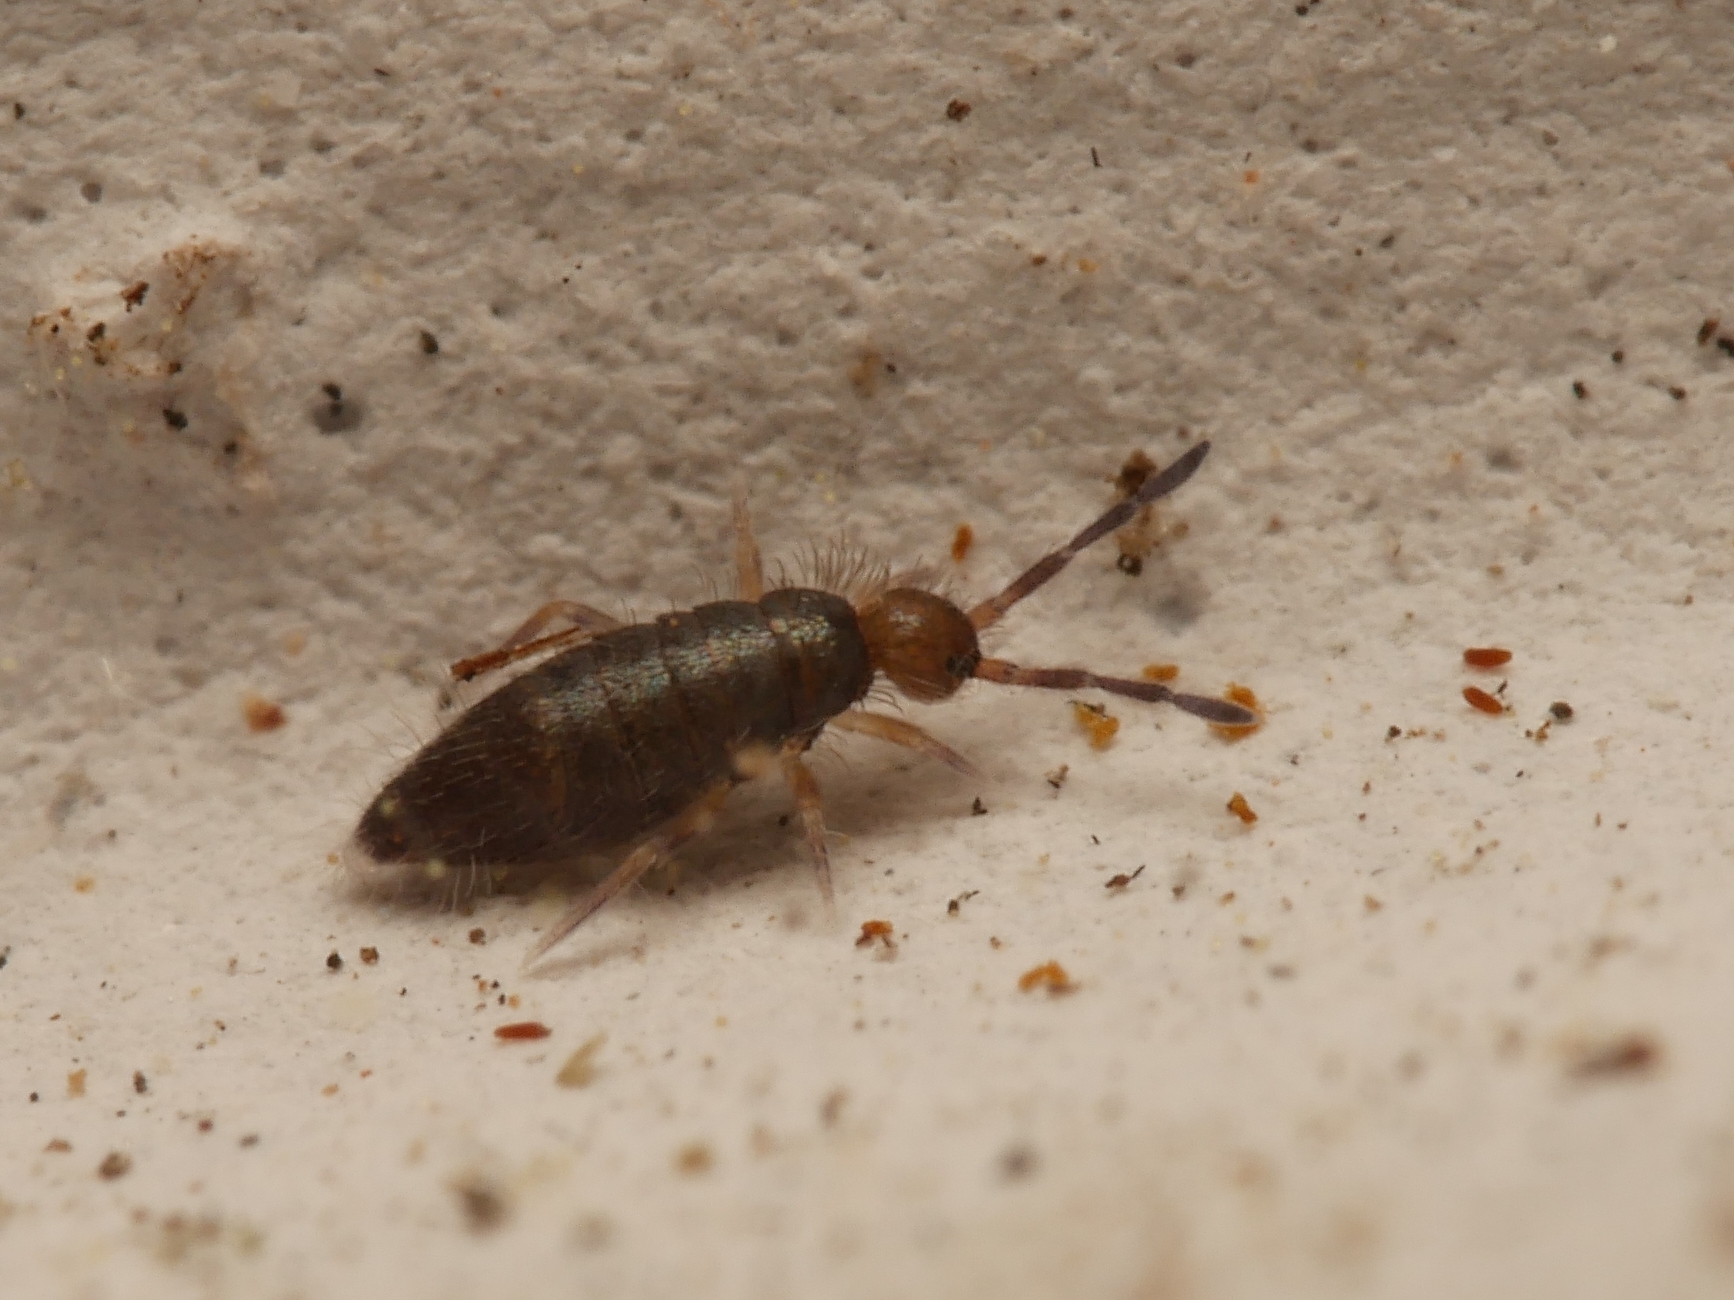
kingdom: Animalia
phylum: Arthropoda
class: Collembola
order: Entomobryomorpha
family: Entomobryidae
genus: Willowsia
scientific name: Willowsia buski
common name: Damp grain springtail
